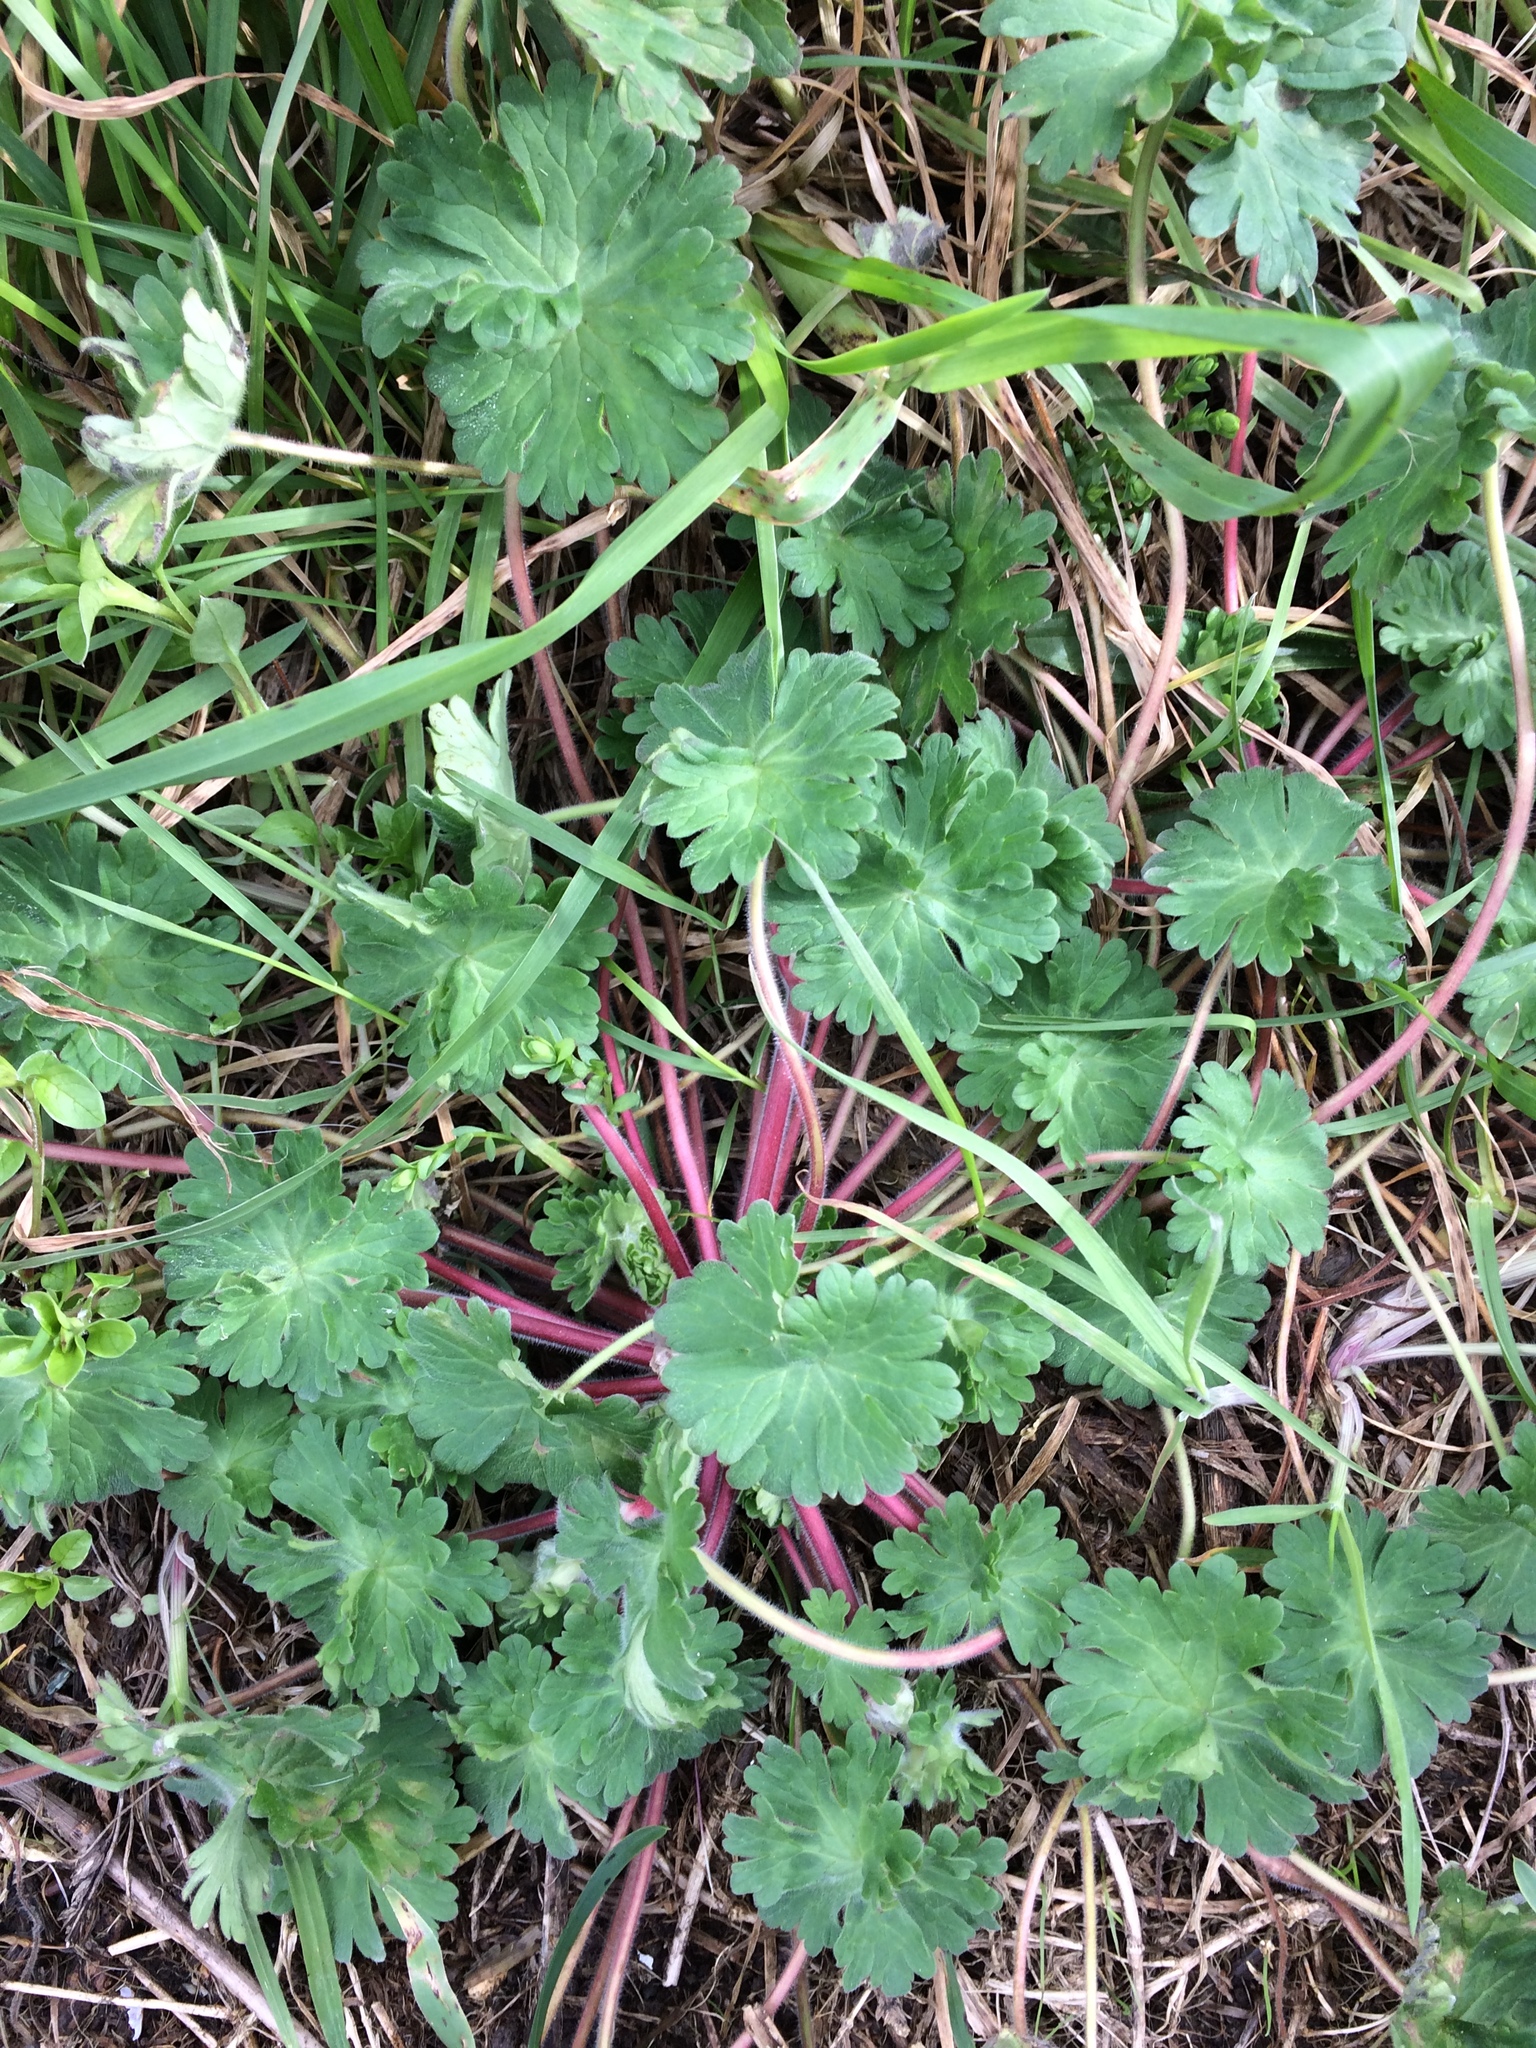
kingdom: Plantae
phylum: Tracheophyta
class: Magnoliopsida
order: Geraniales
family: Geraniaceae
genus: Geranium
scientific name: Geranium molle
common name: Dove's-foot crane's-bill
